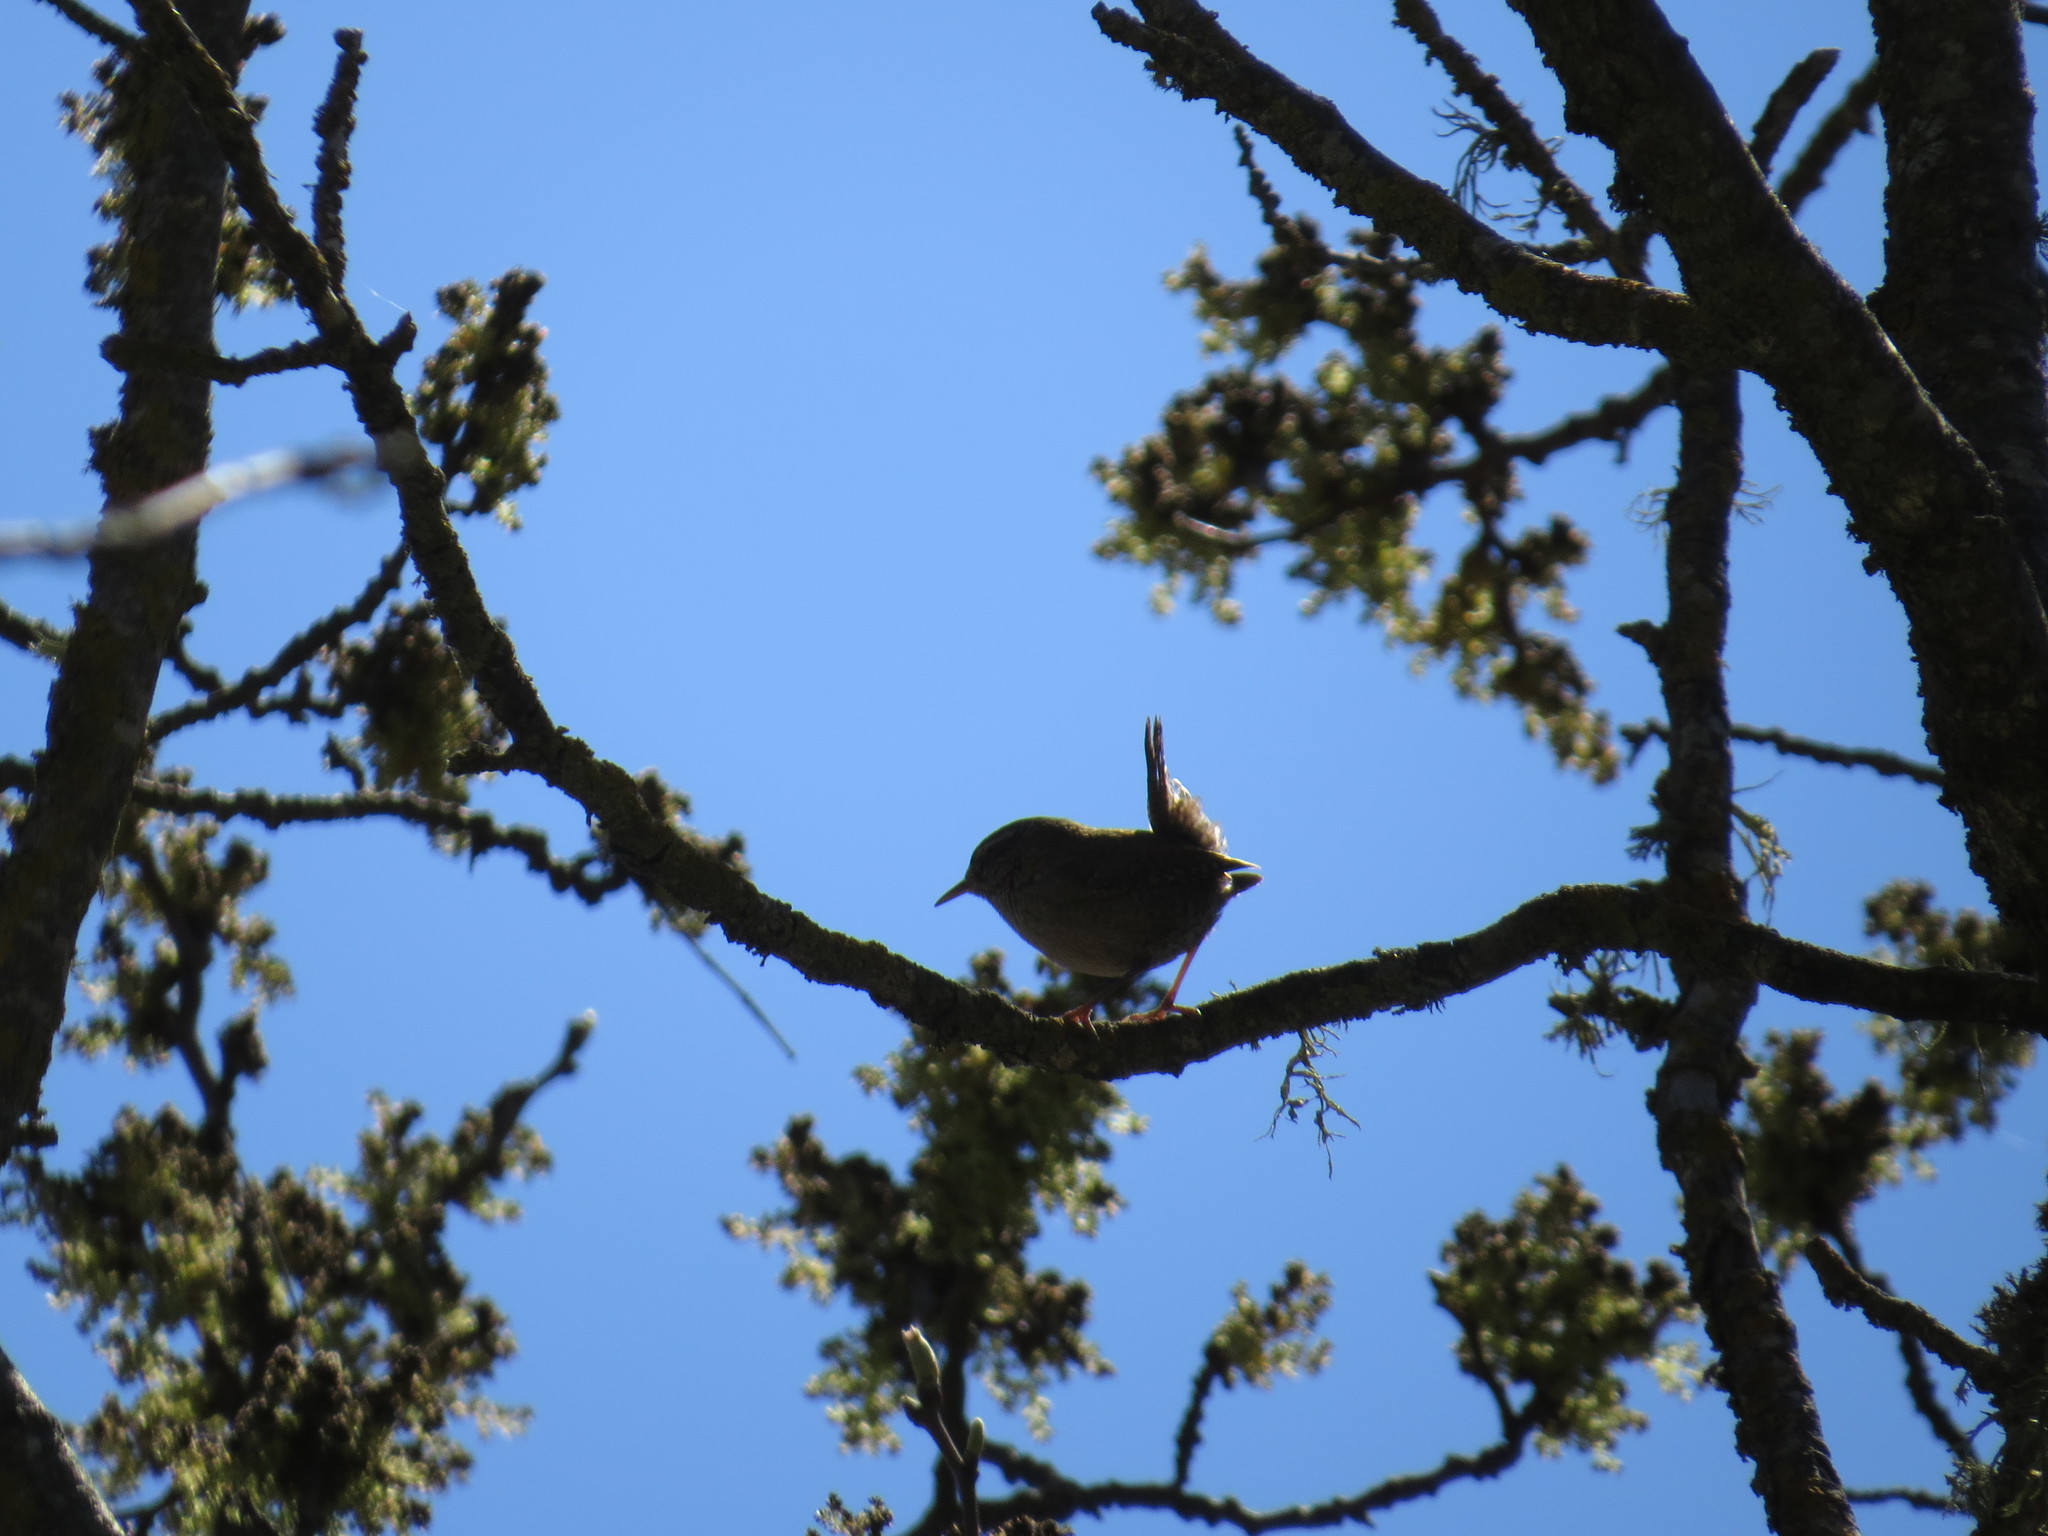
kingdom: Animalia
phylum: Chordata
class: Aves
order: Passeriformes
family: Troglodytidae
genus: Troglodytes
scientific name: Troglodytes troglodytes
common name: Eurasian wren
